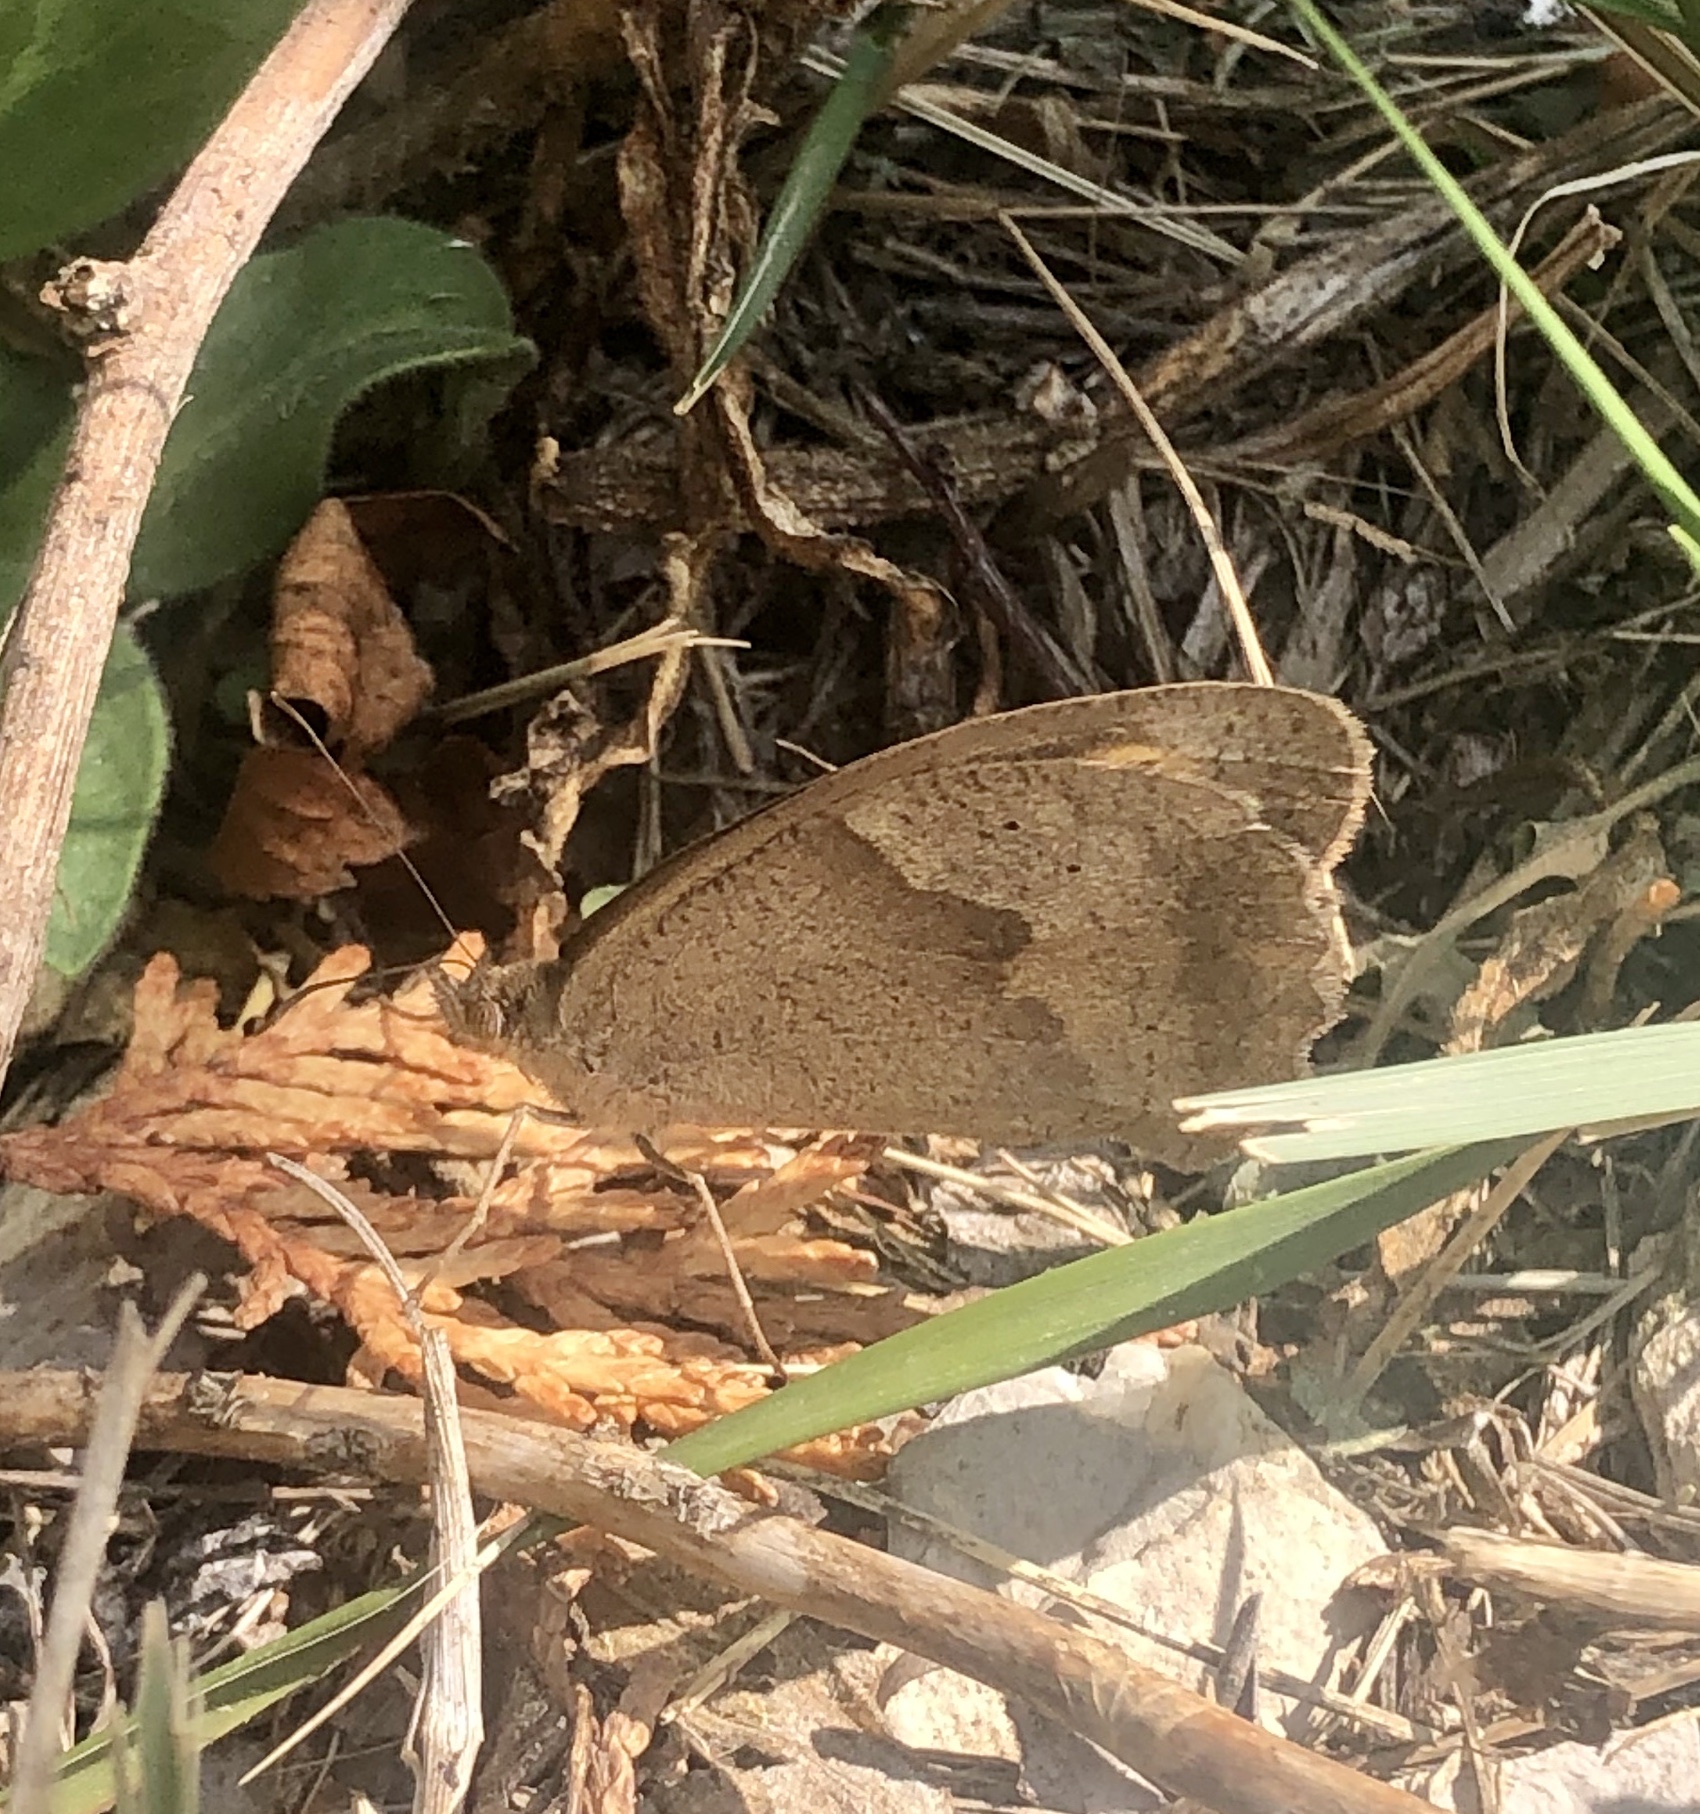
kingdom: Animalia
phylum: Arthropoda
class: Insecta
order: Lepidoptera
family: Nymphalidae
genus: Maniola
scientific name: Maniola jurtina
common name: Meadow brown
